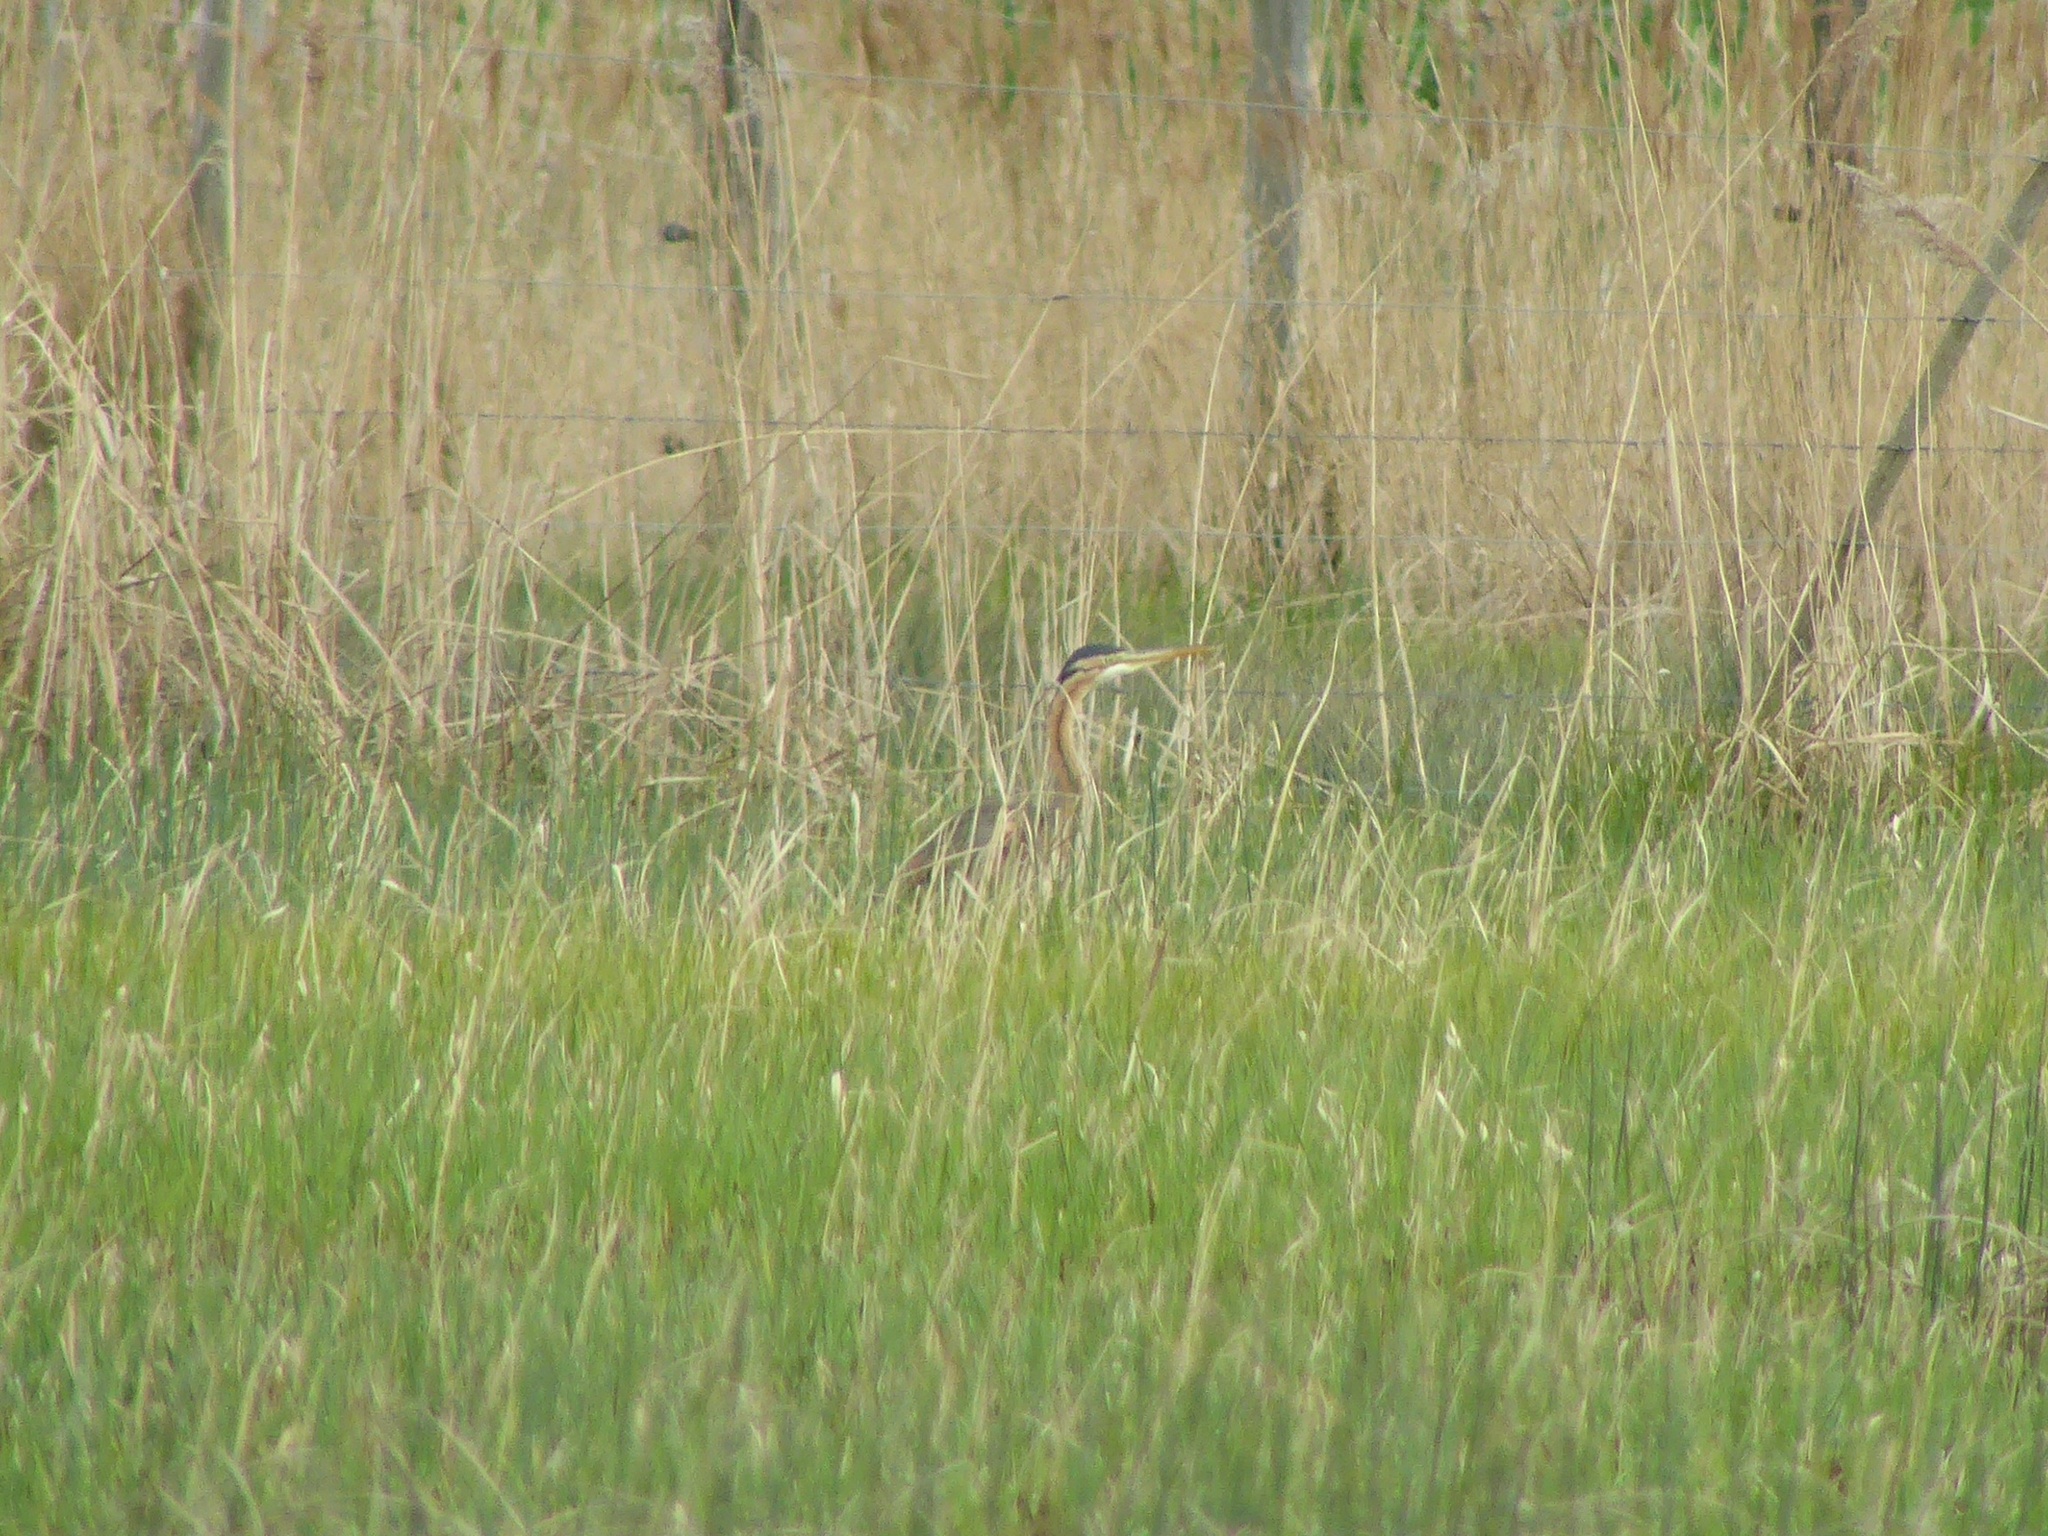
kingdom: Animalia
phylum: Chordata
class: Aves
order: Pelecaniformes
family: Ardeidae
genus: Ardea
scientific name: Ardea purpurea
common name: Purple heron
